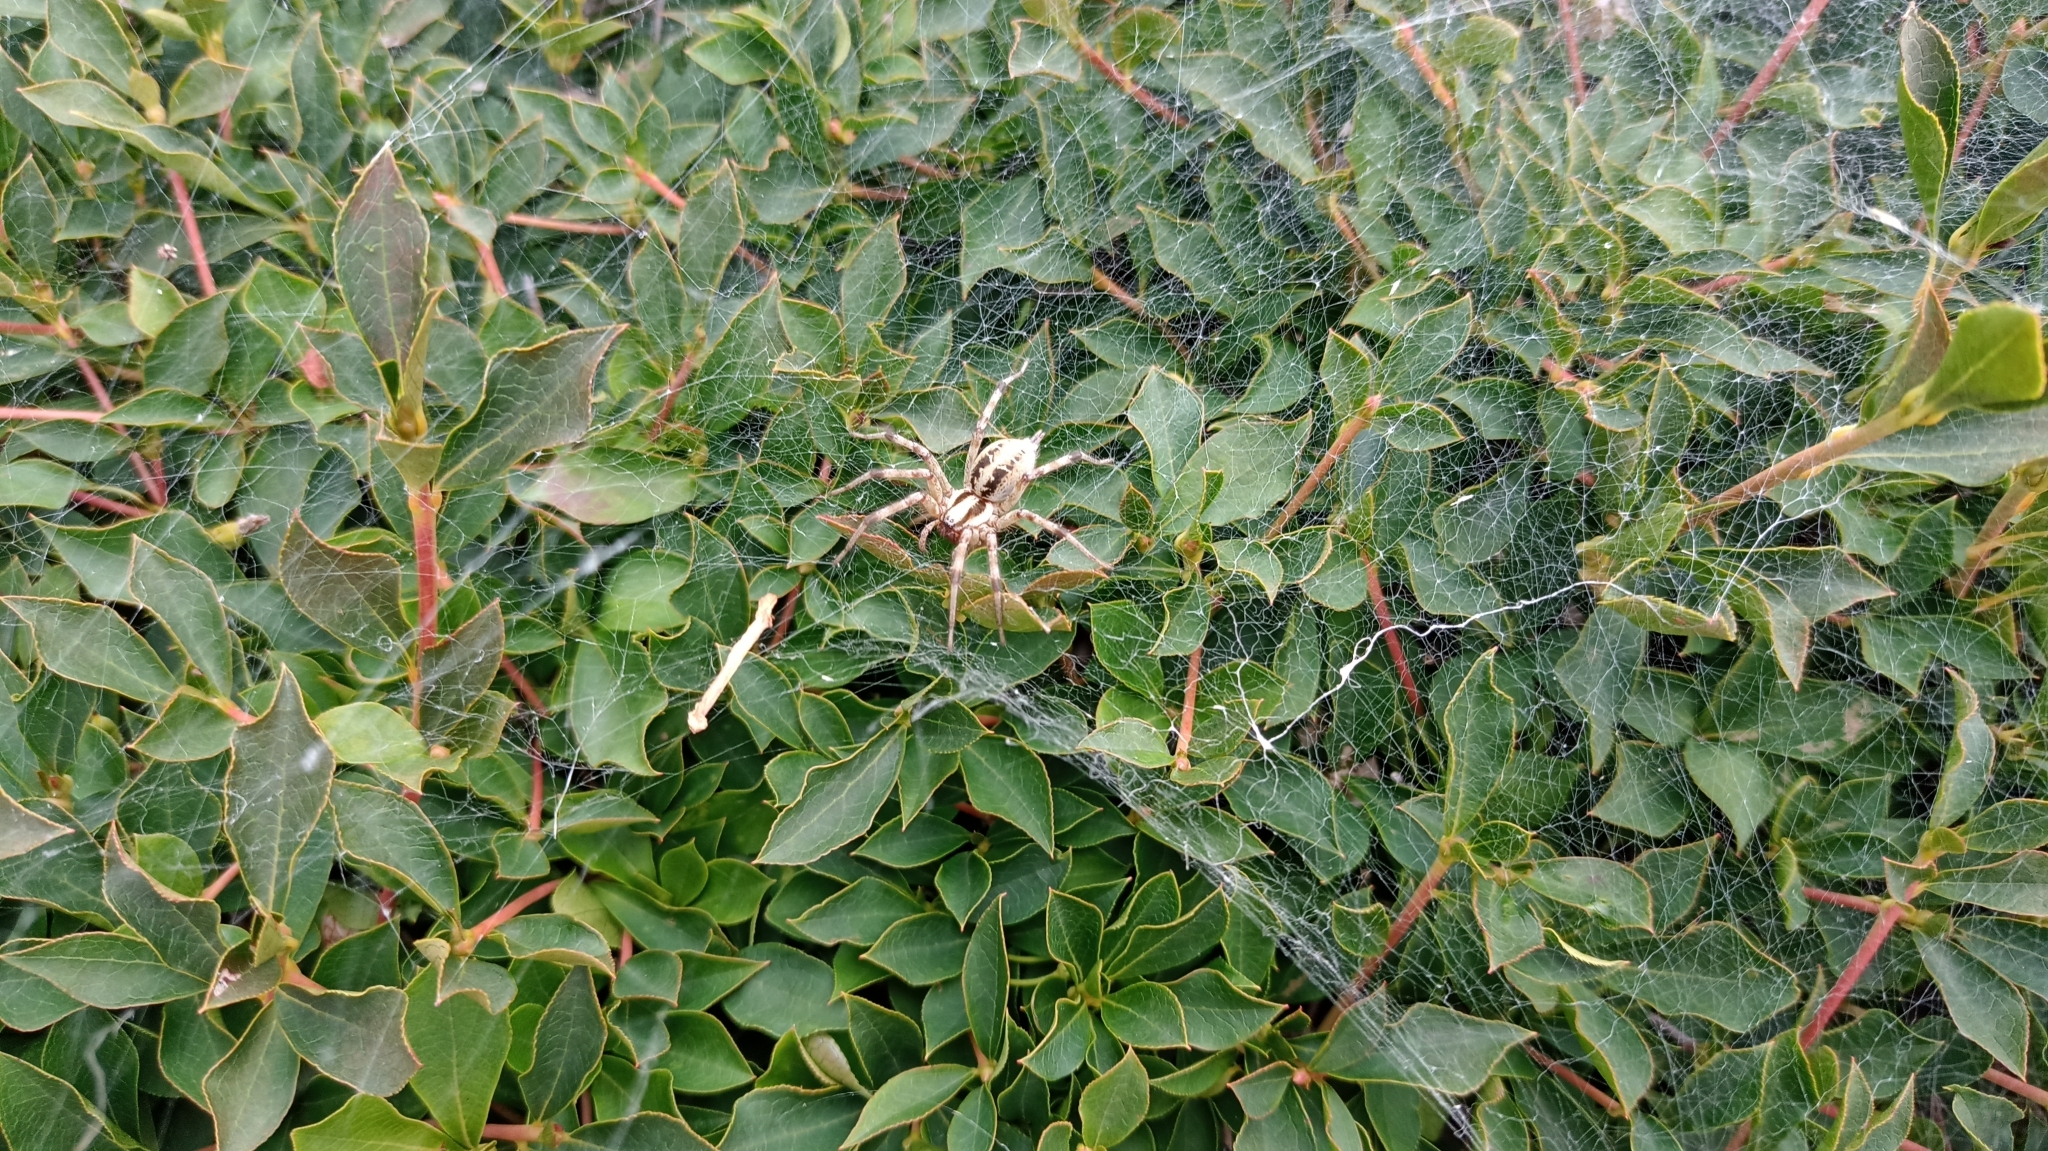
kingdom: Animalia
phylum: Arthropoda
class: Arachnida
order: Araneae
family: Agelenidae
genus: Agelena
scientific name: Agelena silvatica
